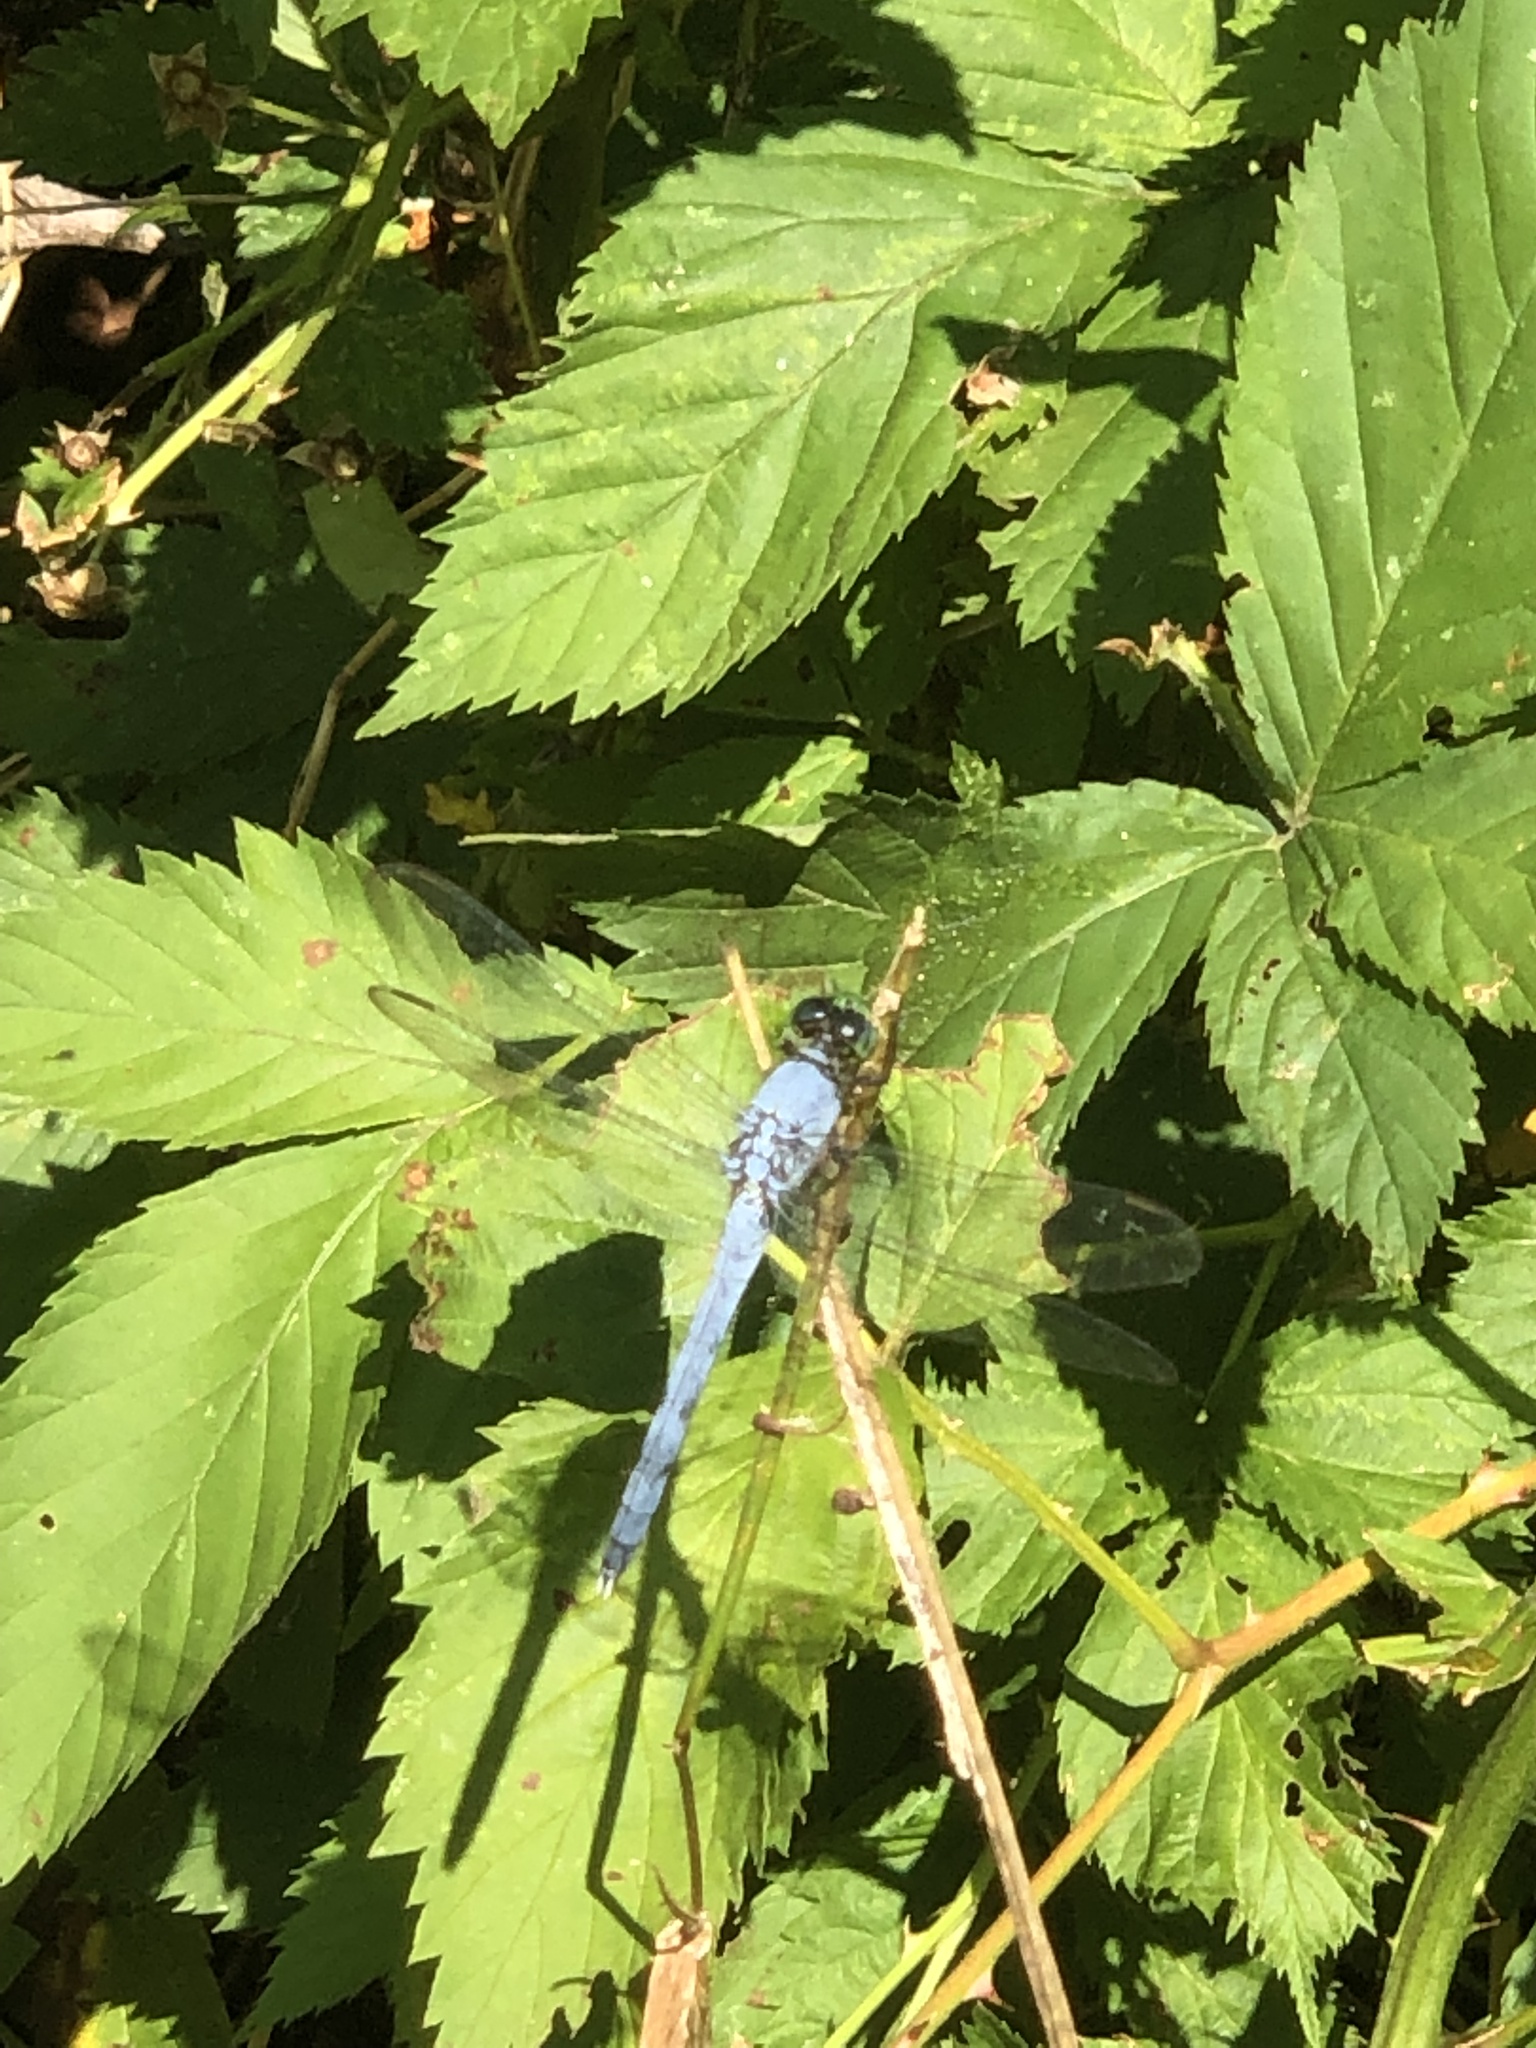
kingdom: Animalia
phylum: Arthropoda
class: Insecta
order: Odonata
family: Libellulidae
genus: Erythemis
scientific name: Erythemis simplicicollis
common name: Eastern pondhawk
